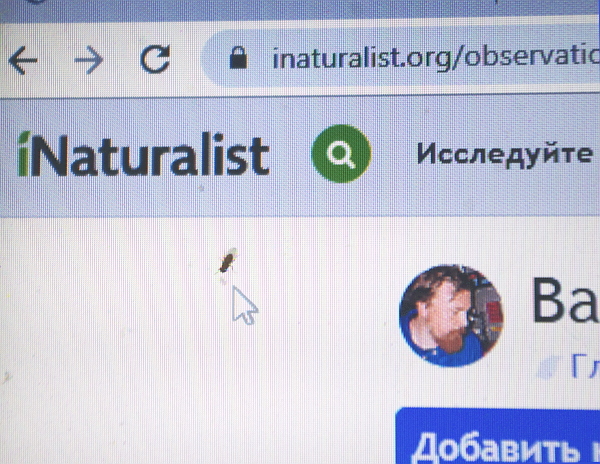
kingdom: Animalia
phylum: Arthropoda
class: Insecta
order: Diptera
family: Drosophilidae
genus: Drosophila
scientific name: Drosophila hydei
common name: Pomace fly
